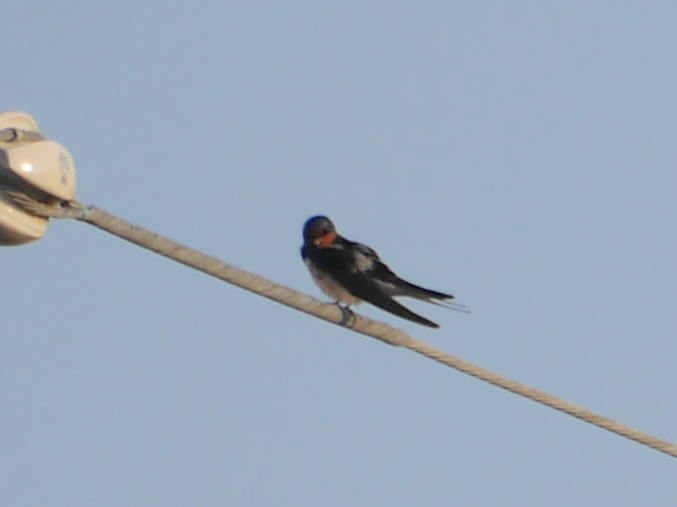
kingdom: Animalia
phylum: Chordata
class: Aves
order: Passeriformes
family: Hirundinidae
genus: Hirundo
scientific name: Hirundo rustica
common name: Barn swallow
